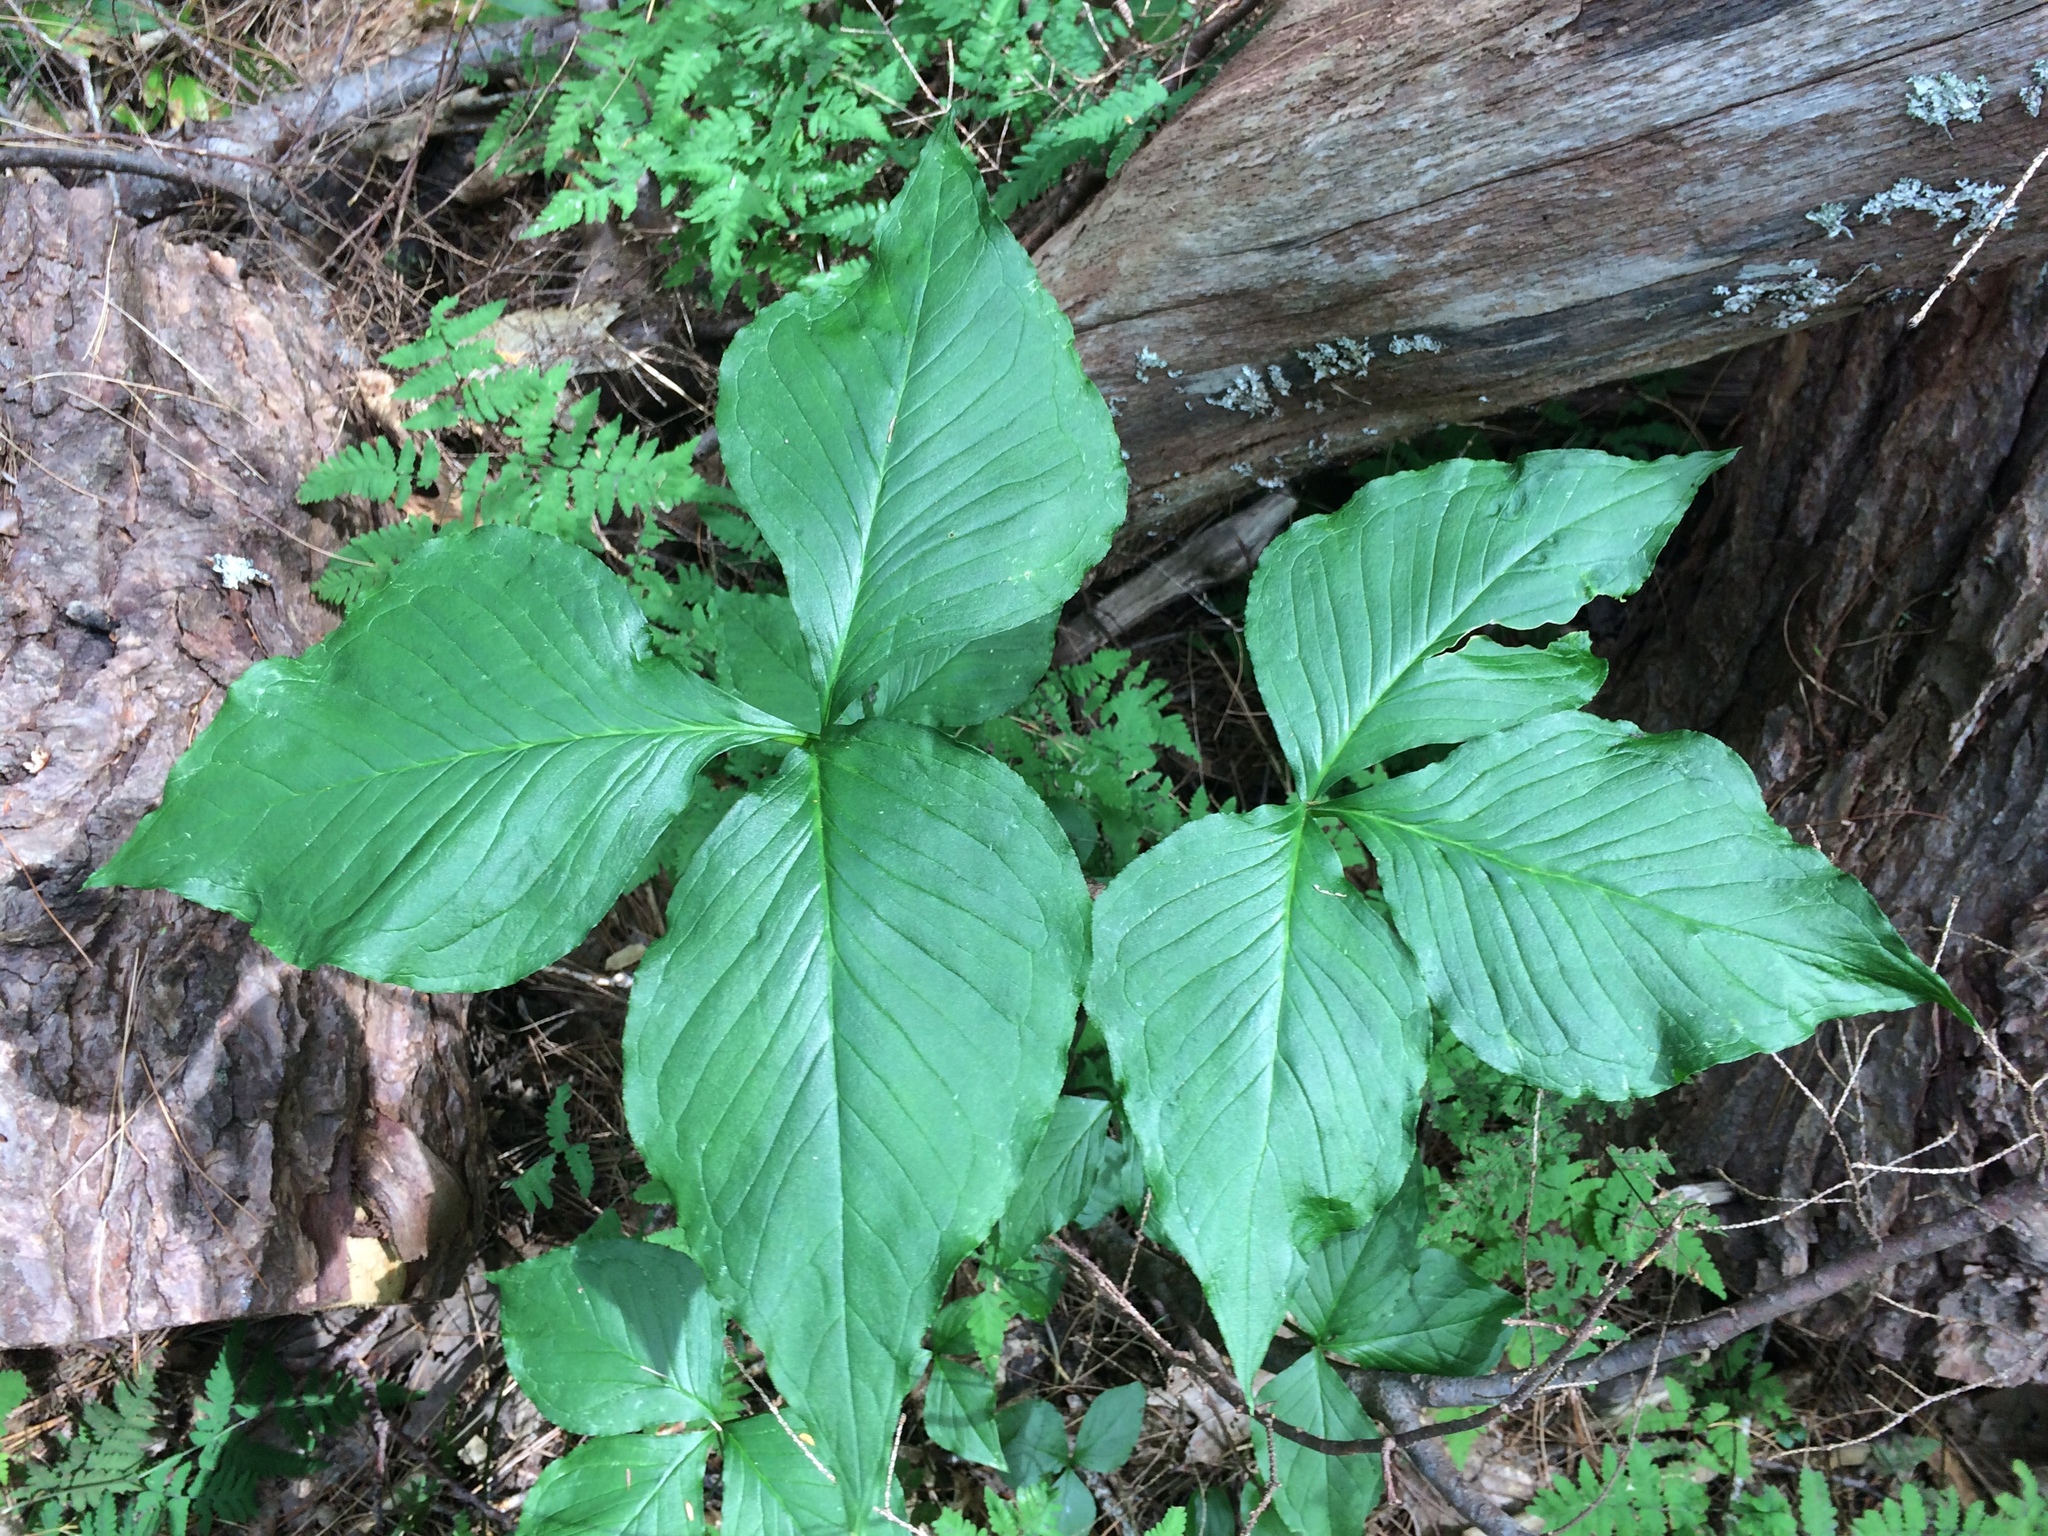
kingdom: Plantae
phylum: Tracheophyta
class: Liliopsida
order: Alismatales
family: Araceae
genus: Arisaema
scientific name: Arisaema triphyllum
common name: Jack-in-the-pulpit
